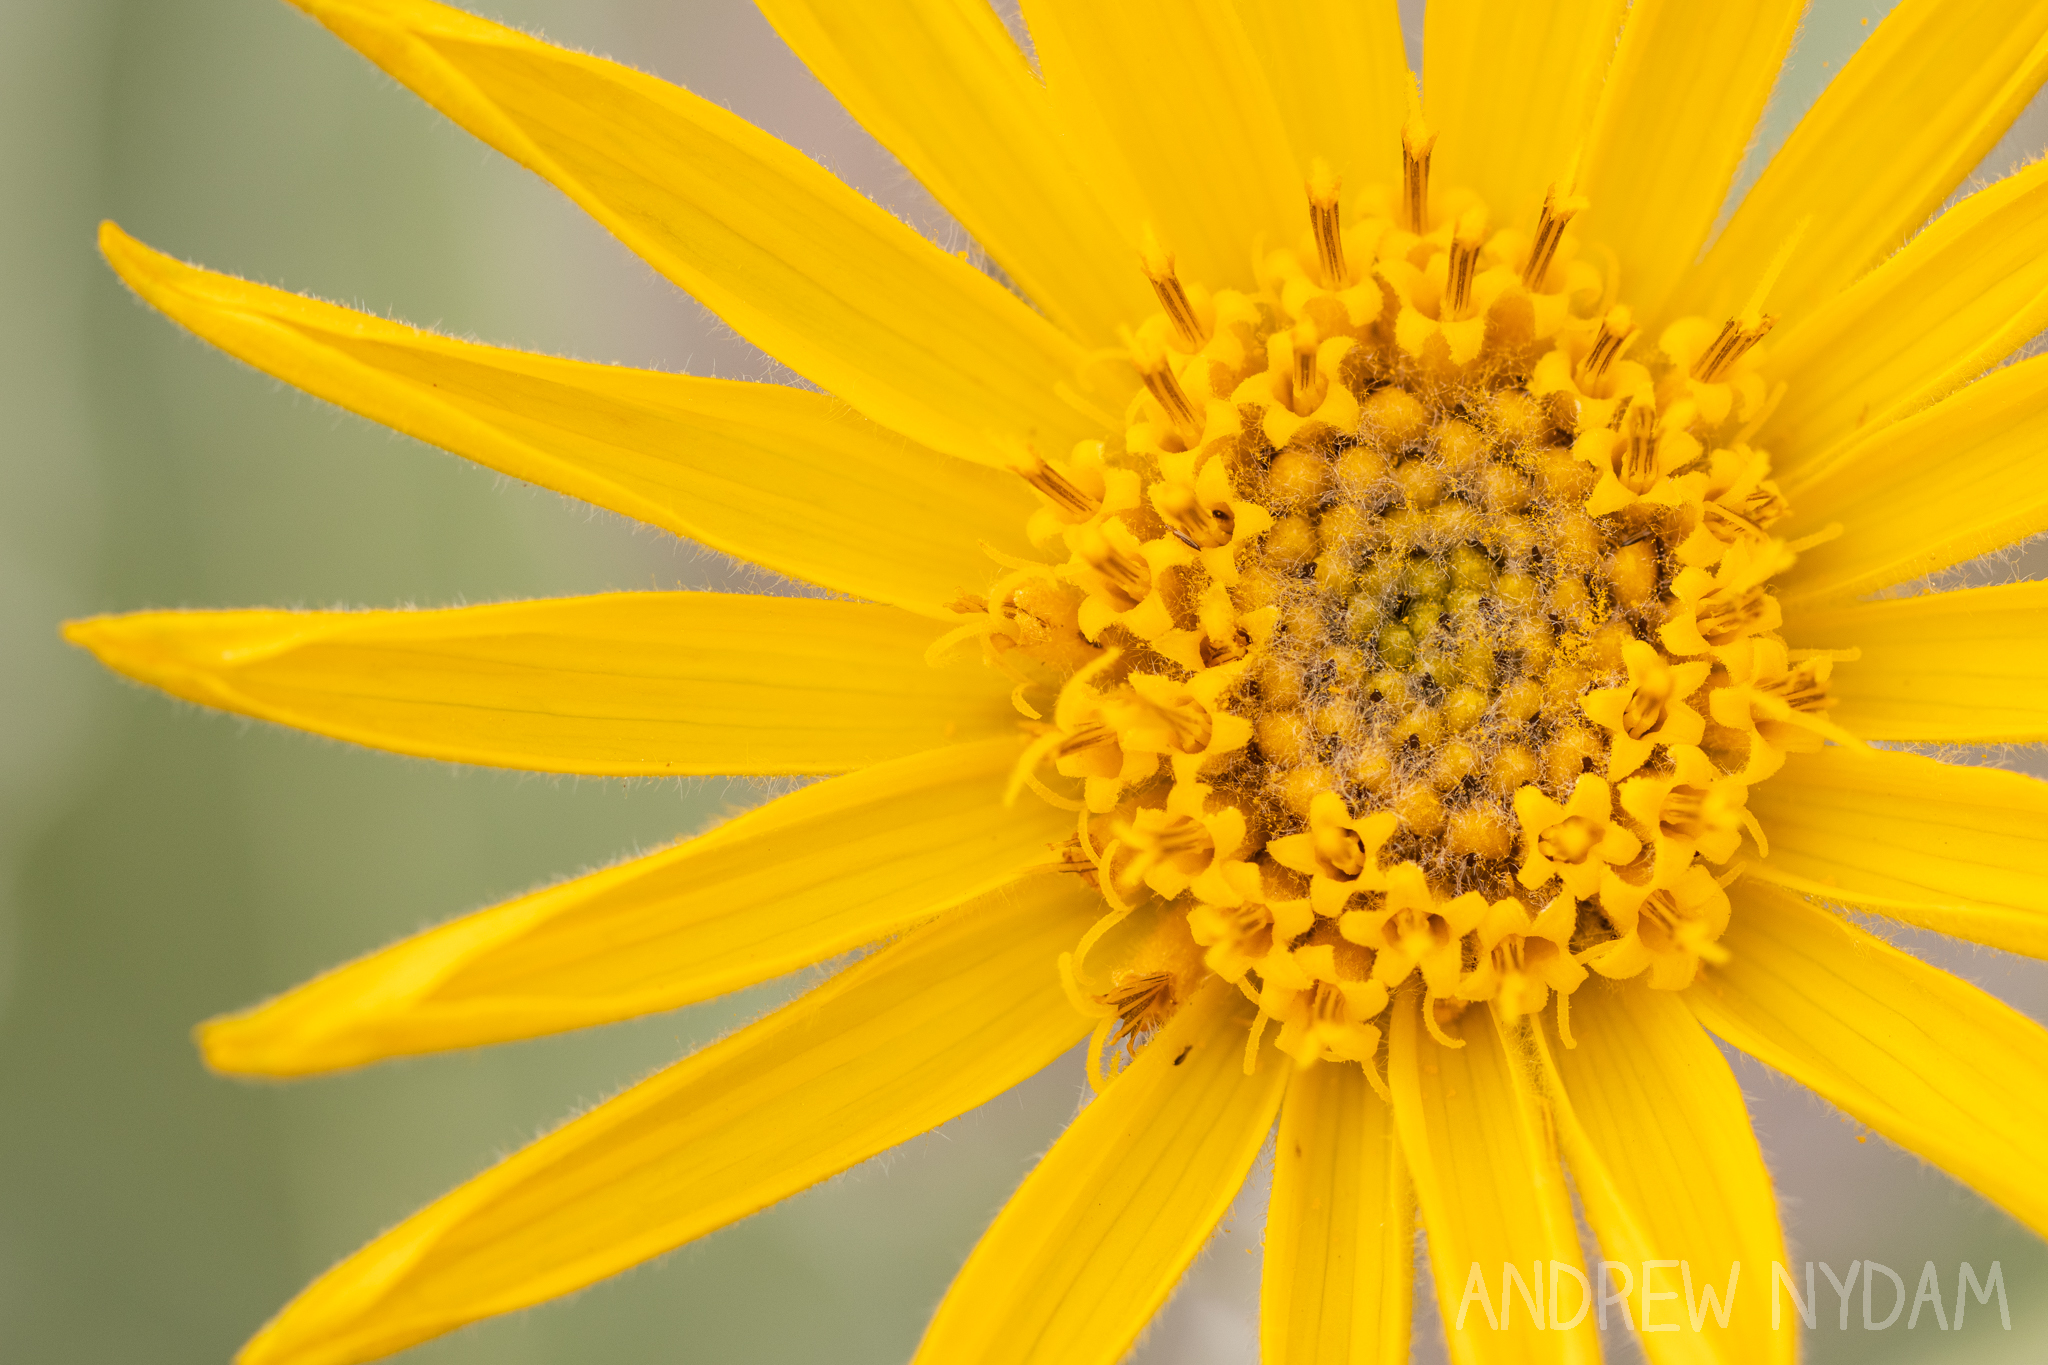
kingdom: Plantae
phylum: Tracheophyta
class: Magnoliopsida
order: Asterales
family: Asteraceae
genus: Wyethia
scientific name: Wyethia sagittata
